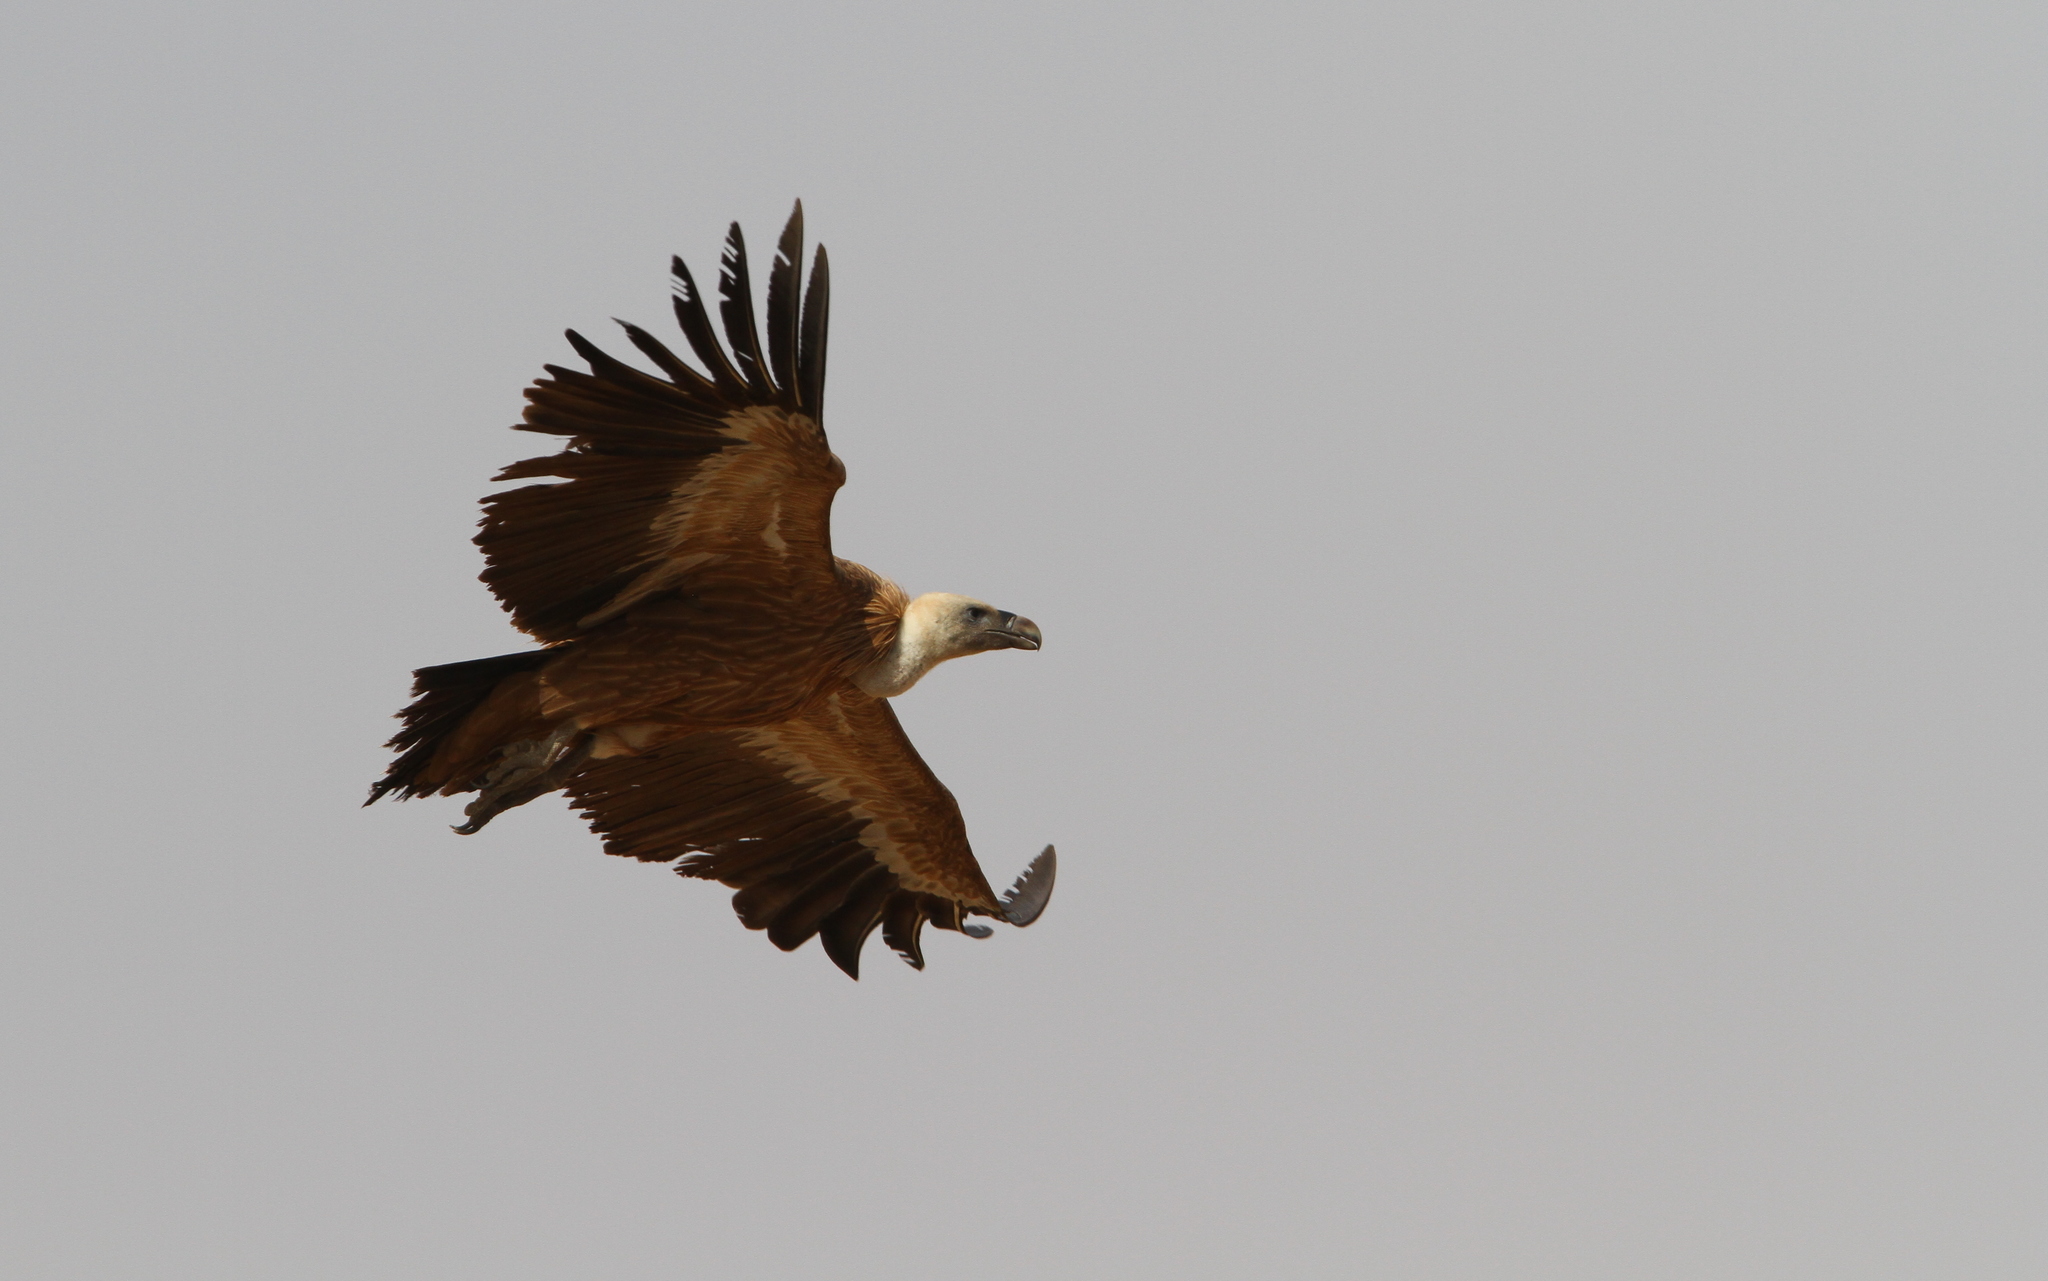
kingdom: Animalia
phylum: Chordata
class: Aves
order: Accipitriformes
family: Accipitridae
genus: Gyps
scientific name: Gyps fulvus
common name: Griffon vulture
